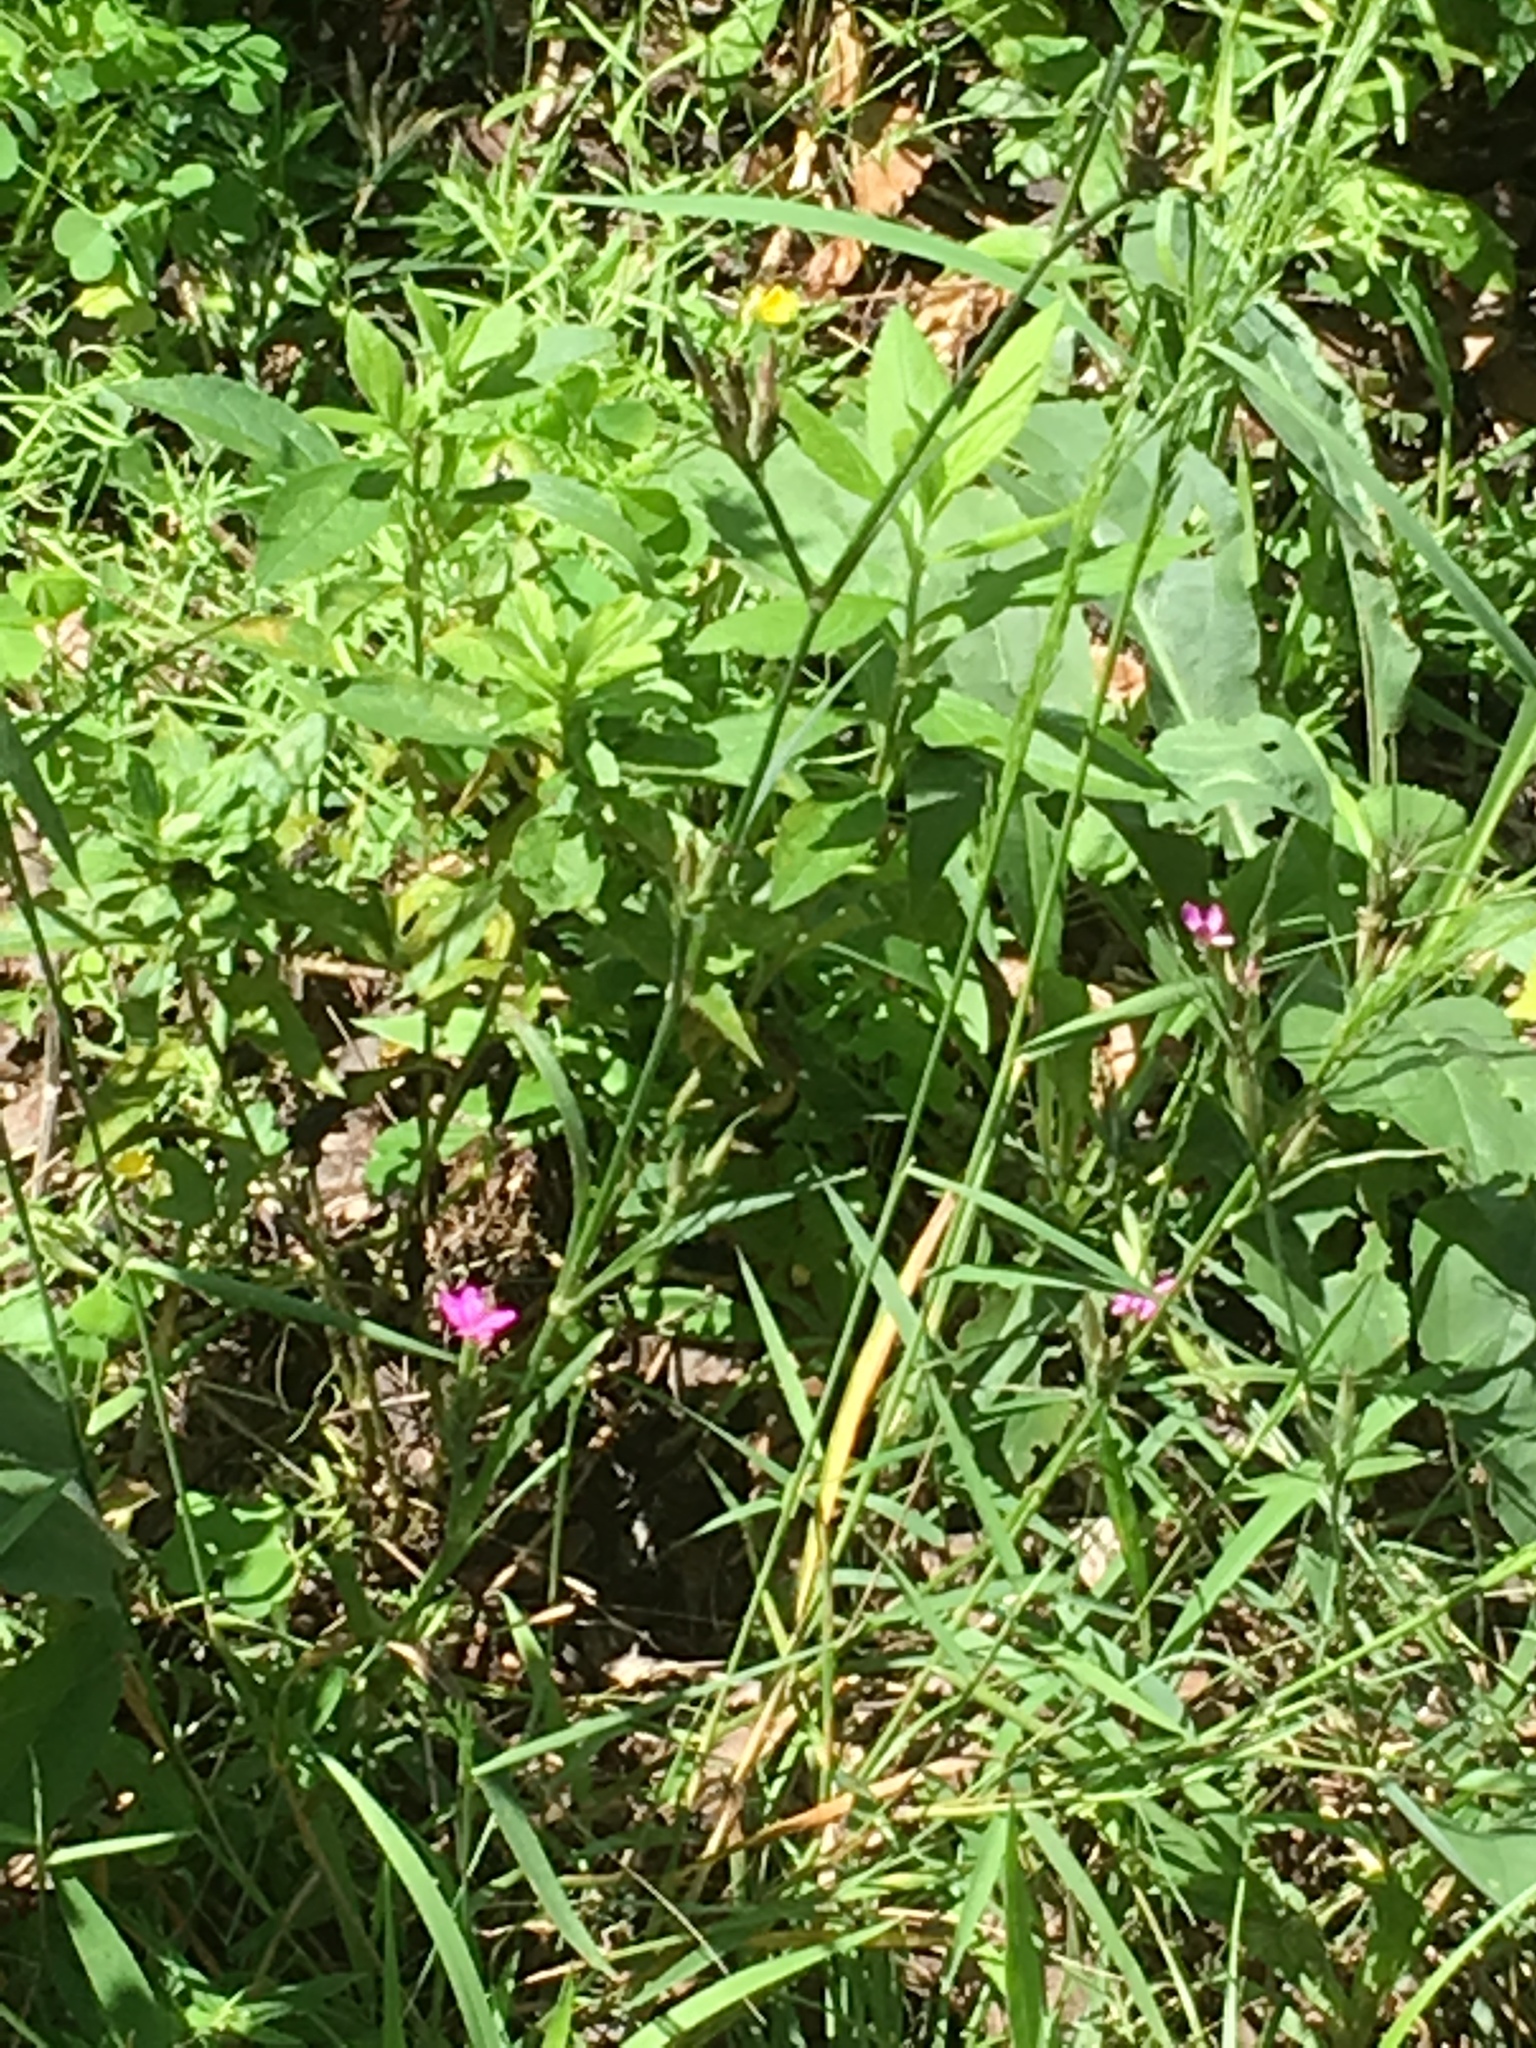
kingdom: Plantae
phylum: Tracheophyta
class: Magnoliopsida
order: Caryophyllales
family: Caryophyllaceae
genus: Dianthus
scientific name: Dianthus armeria
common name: Deptford pink
